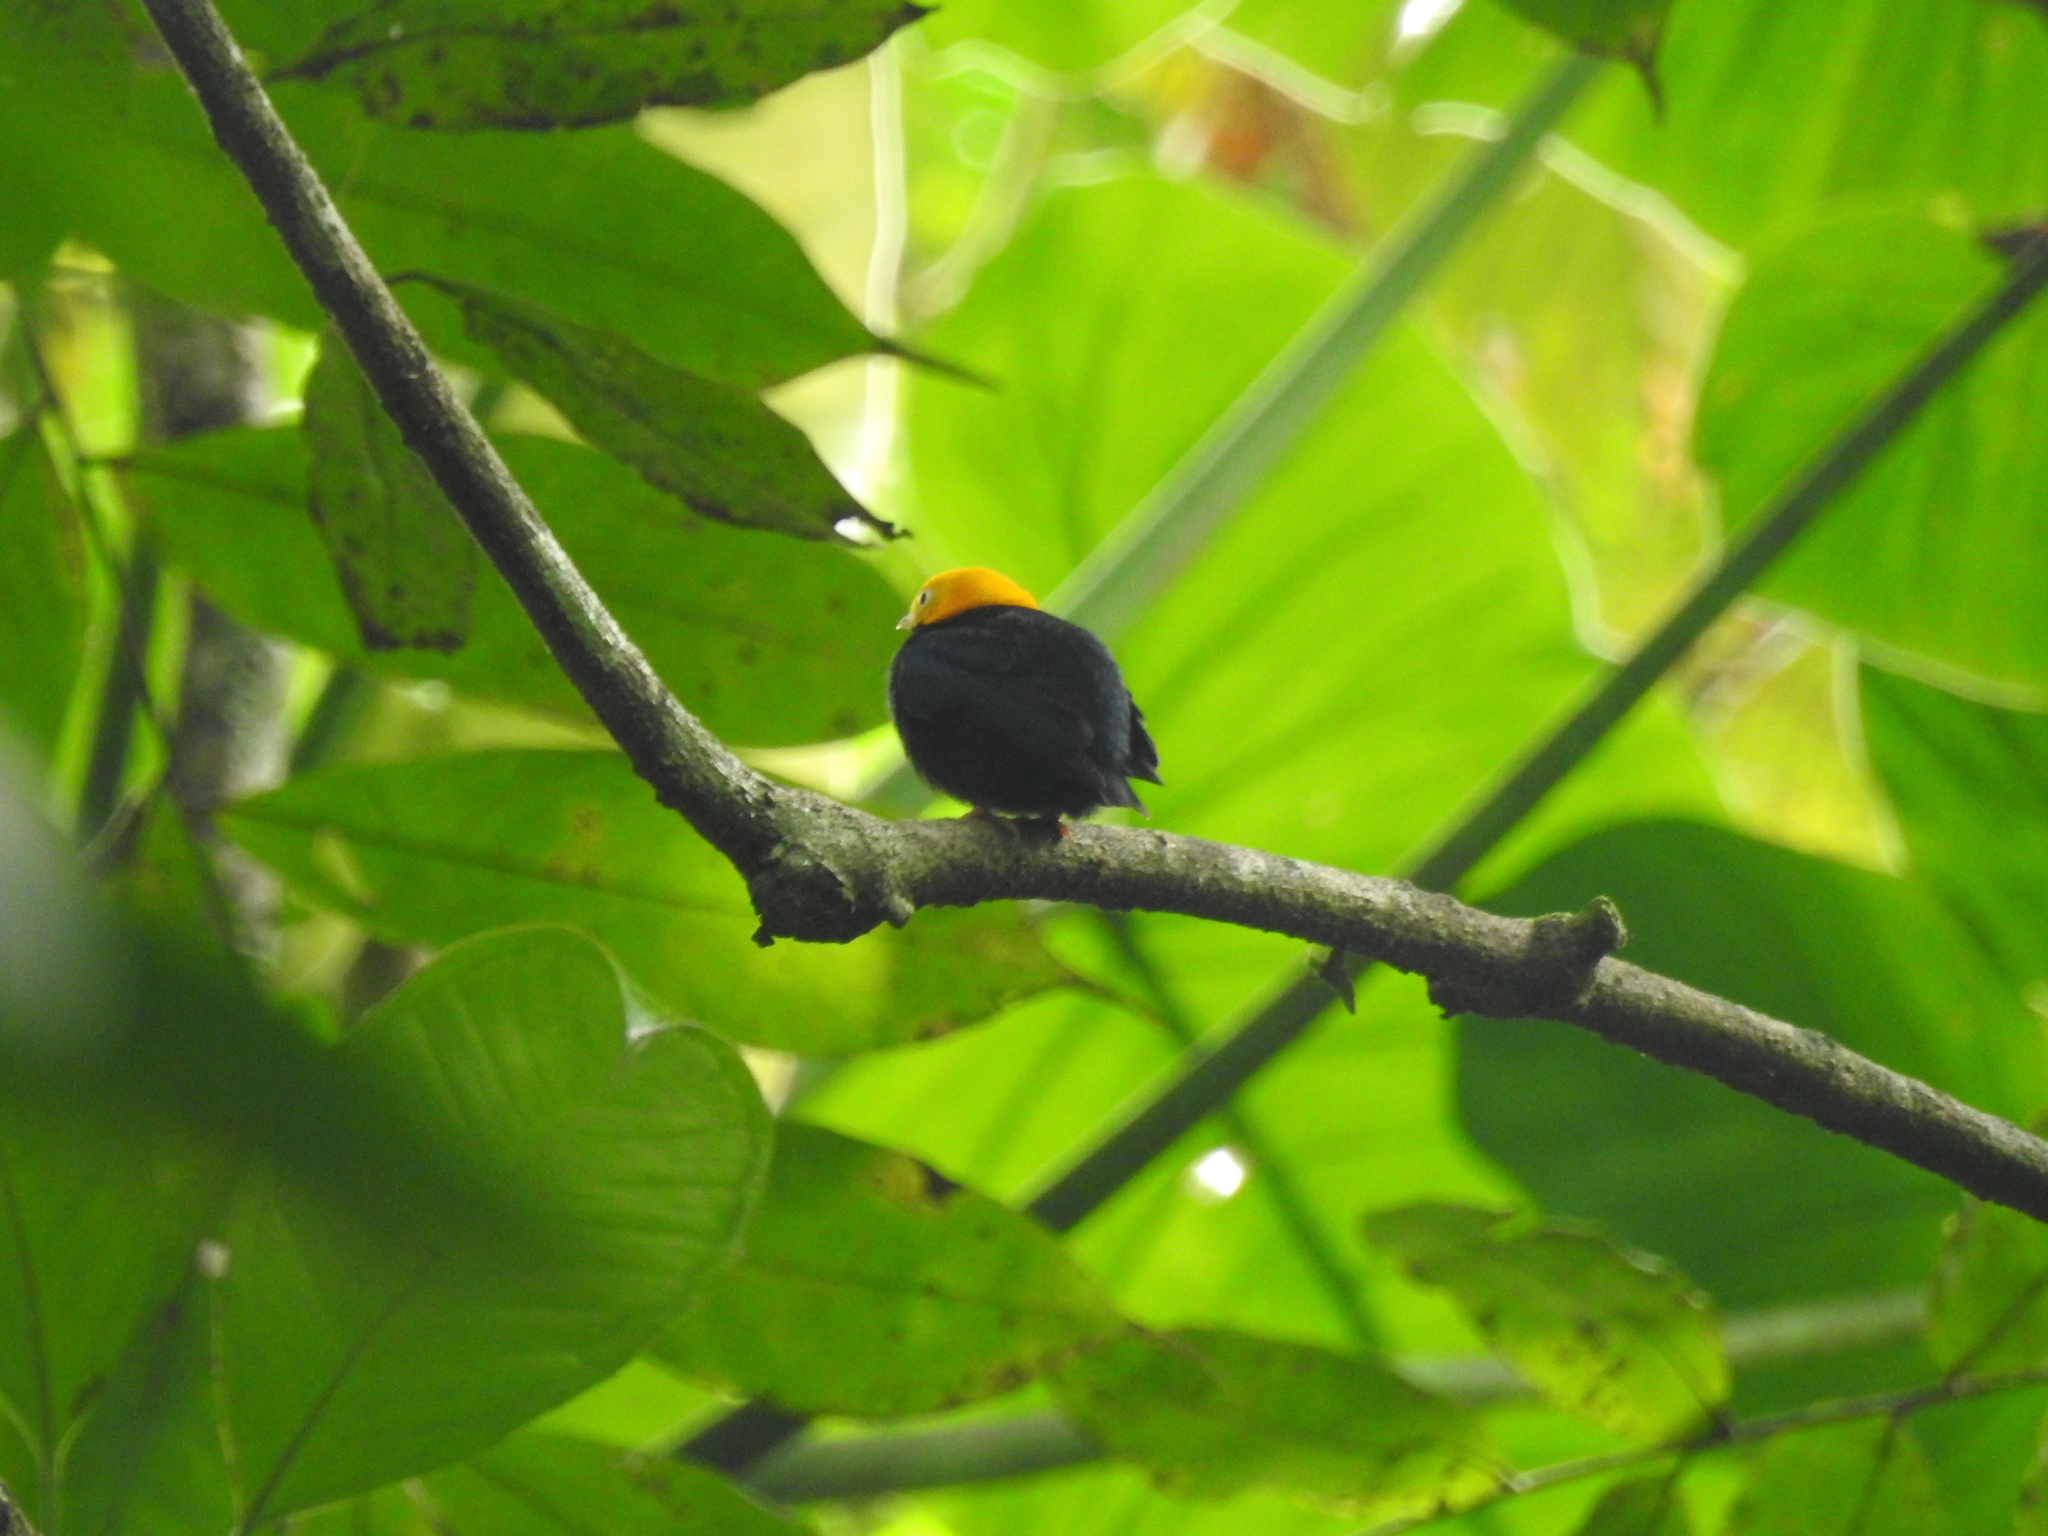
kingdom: Animalia
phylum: Chordata
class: Aves
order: Passeriformes
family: Pipridae
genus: Pipra
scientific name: Pipra erythrocephala
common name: Golden-headed manakin
